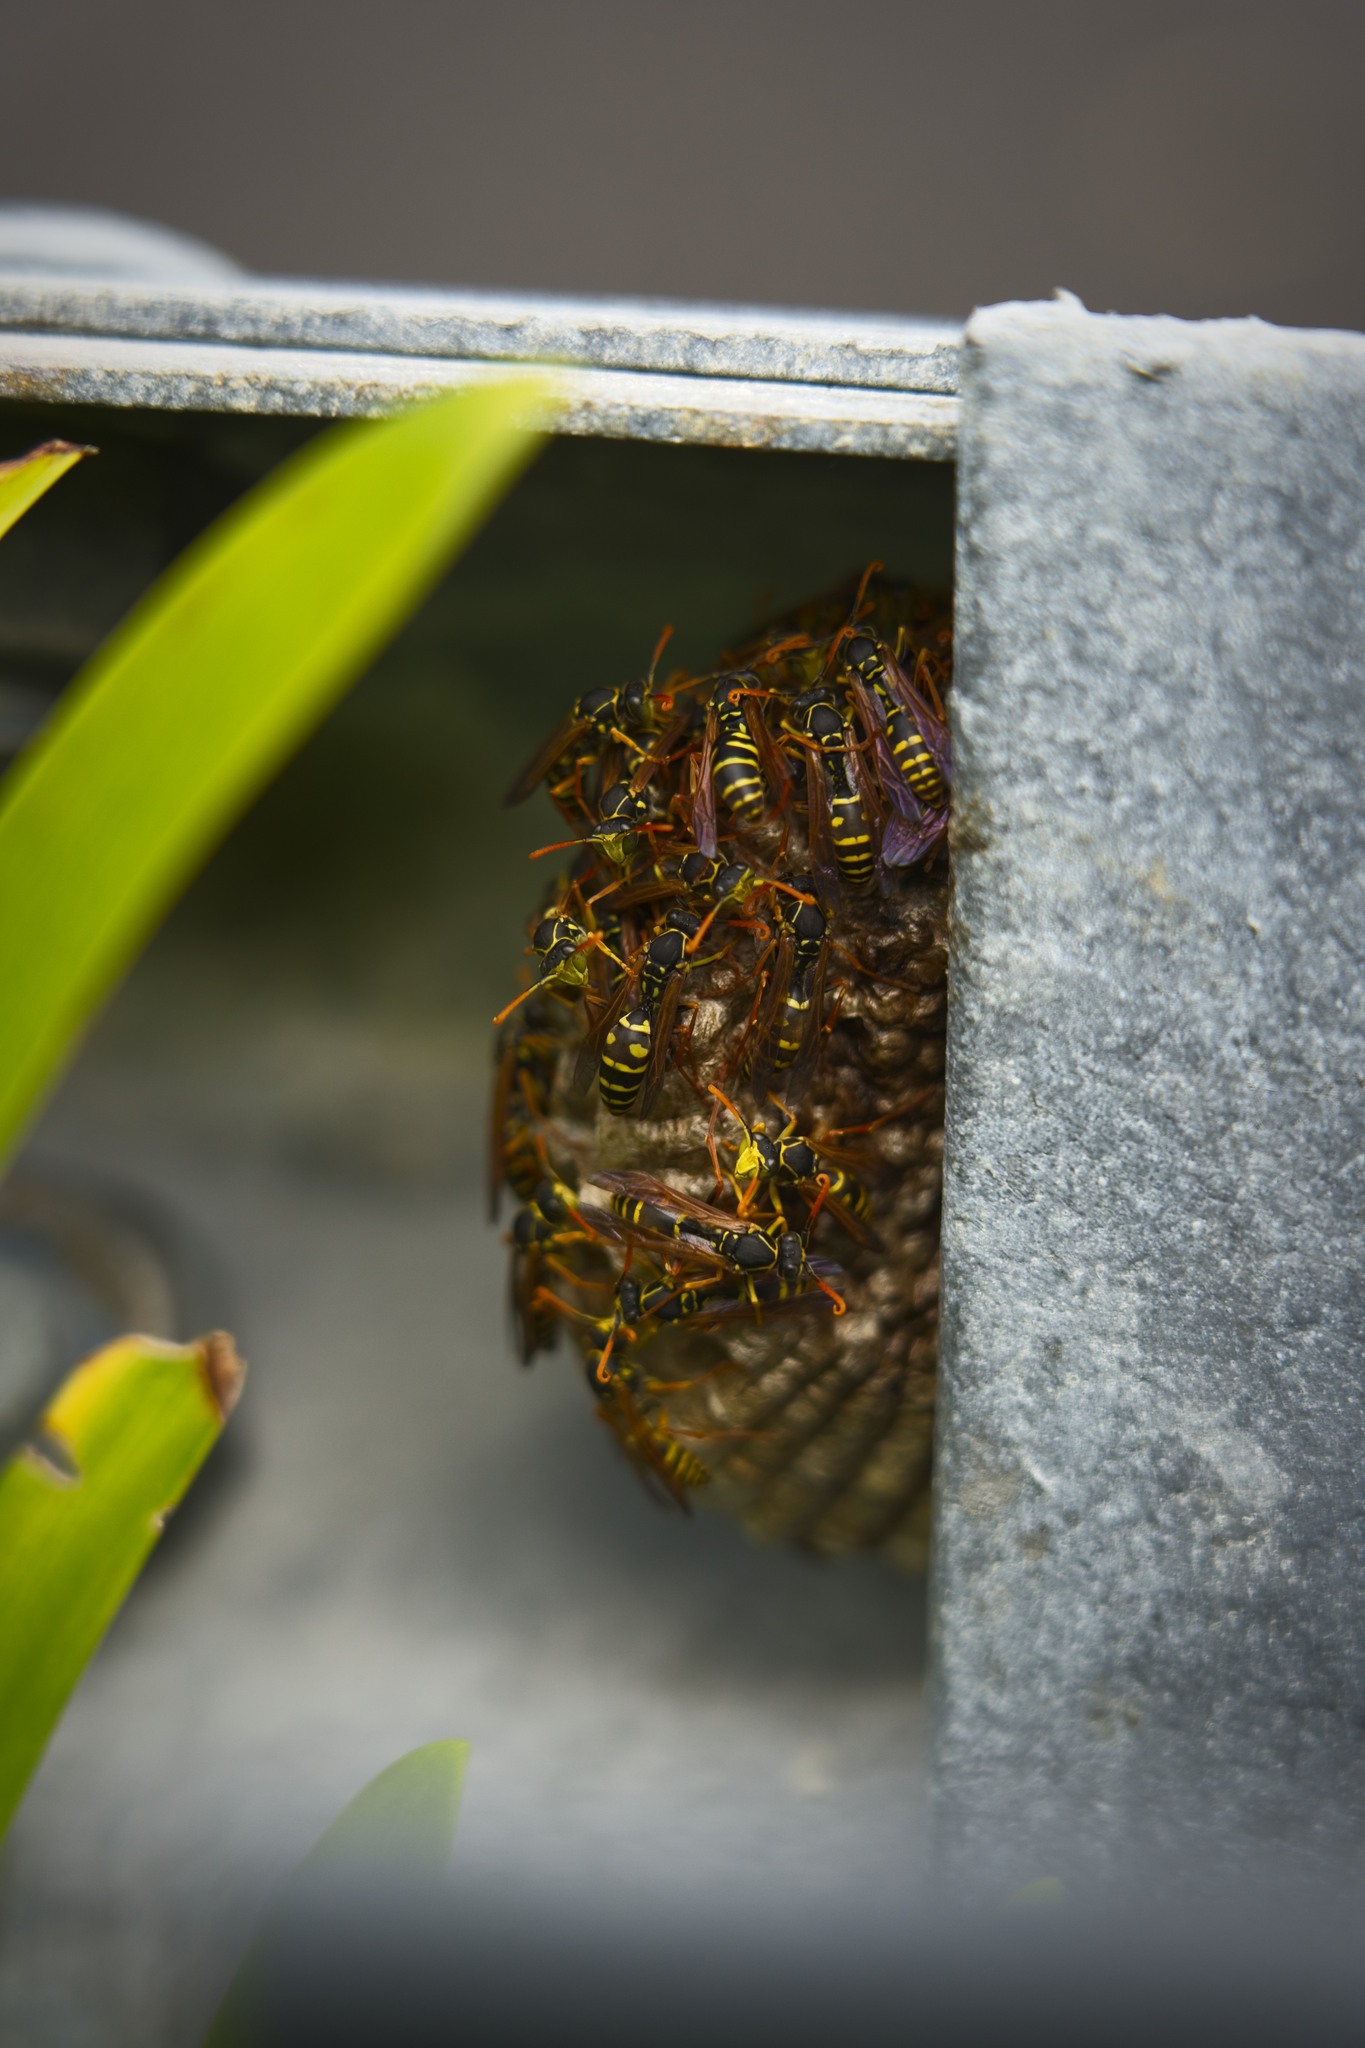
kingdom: Animalia
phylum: Arthropoda
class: Insecta
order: Hymenoptera
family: Eumenidae
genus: Polistes
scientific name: Polistes chinensis
